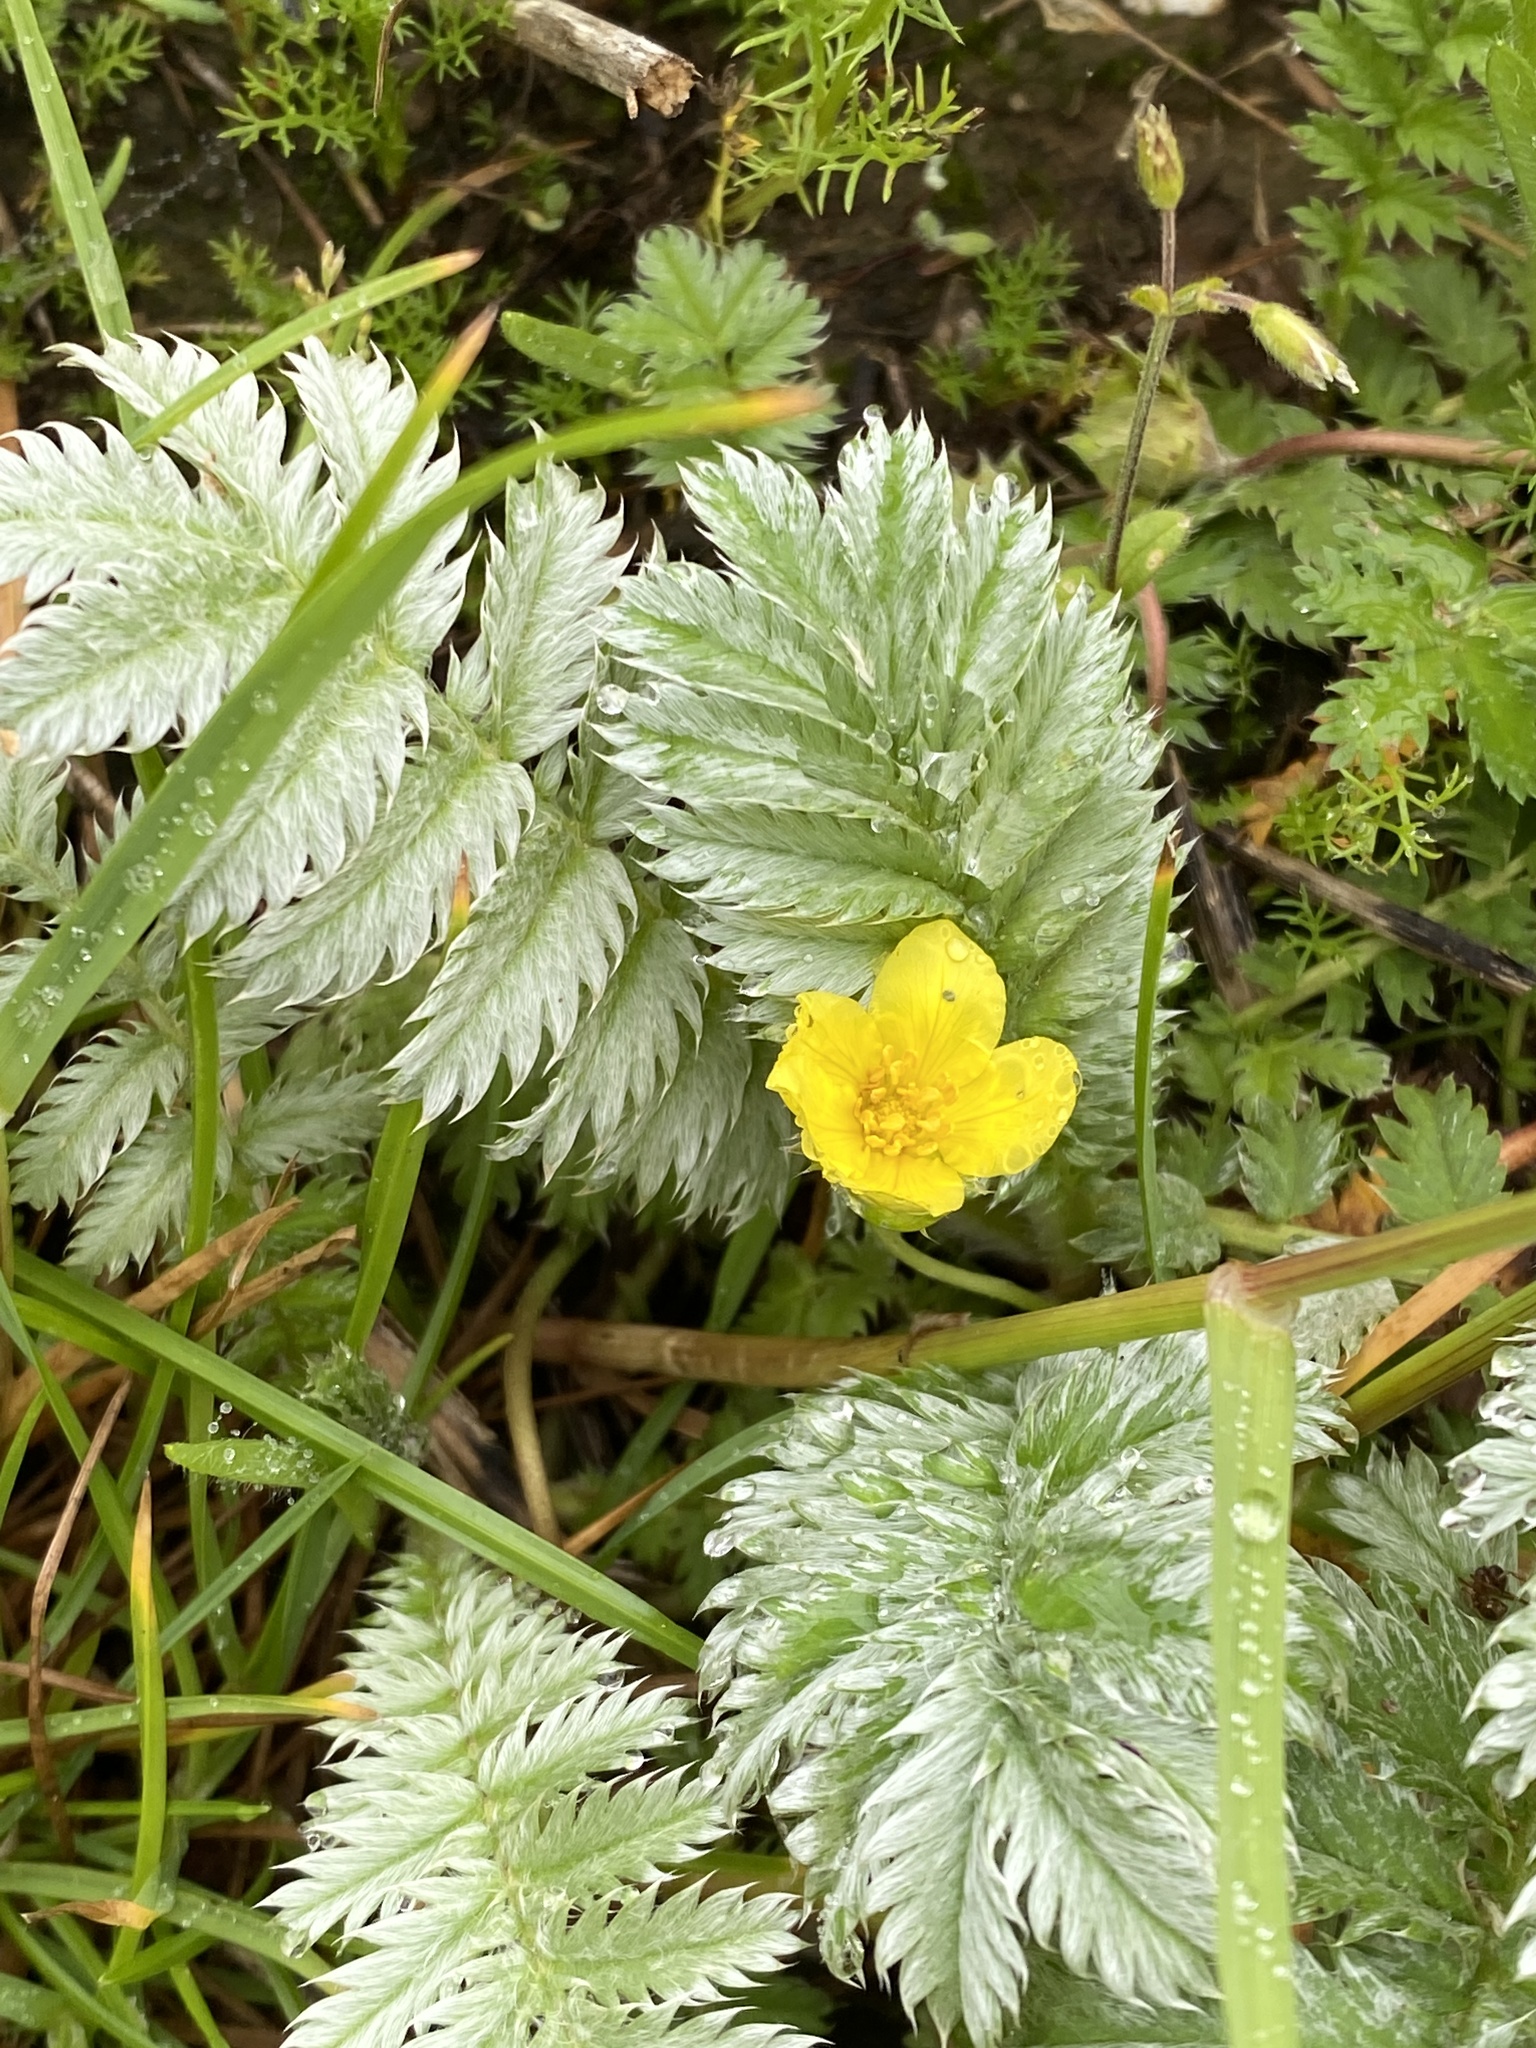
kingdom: Plantae
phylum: Tracheophyta
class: Magnoliopsida
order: Rosales
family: Rosaceae
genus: Argentina
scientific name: Argentina anserina
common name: Common silverweed
